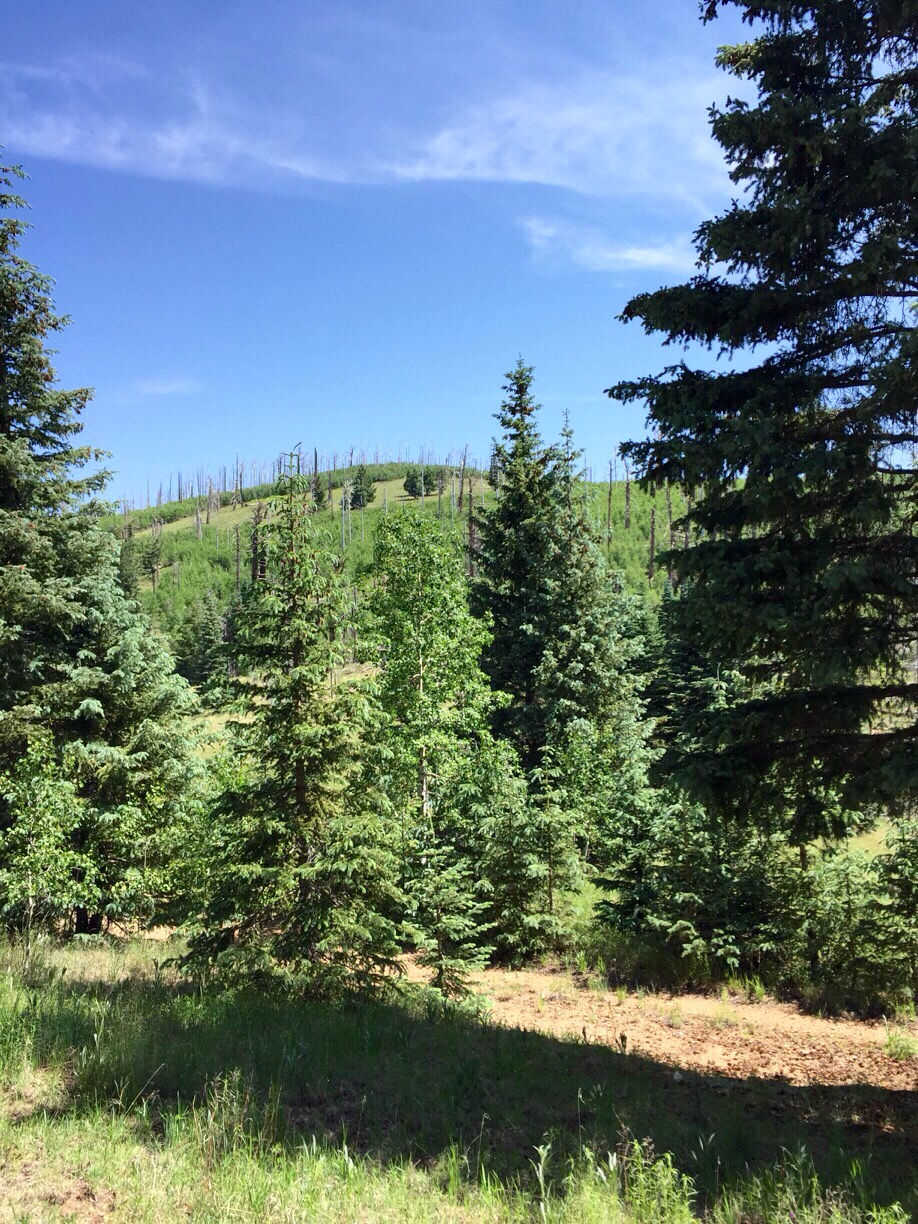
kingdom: Plantae
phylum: Tracheophyta
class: Pinopsida
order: Pinales
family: Pinaceae
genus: Abies
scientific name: Abies lasiocarpa
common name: Subalpine fir
